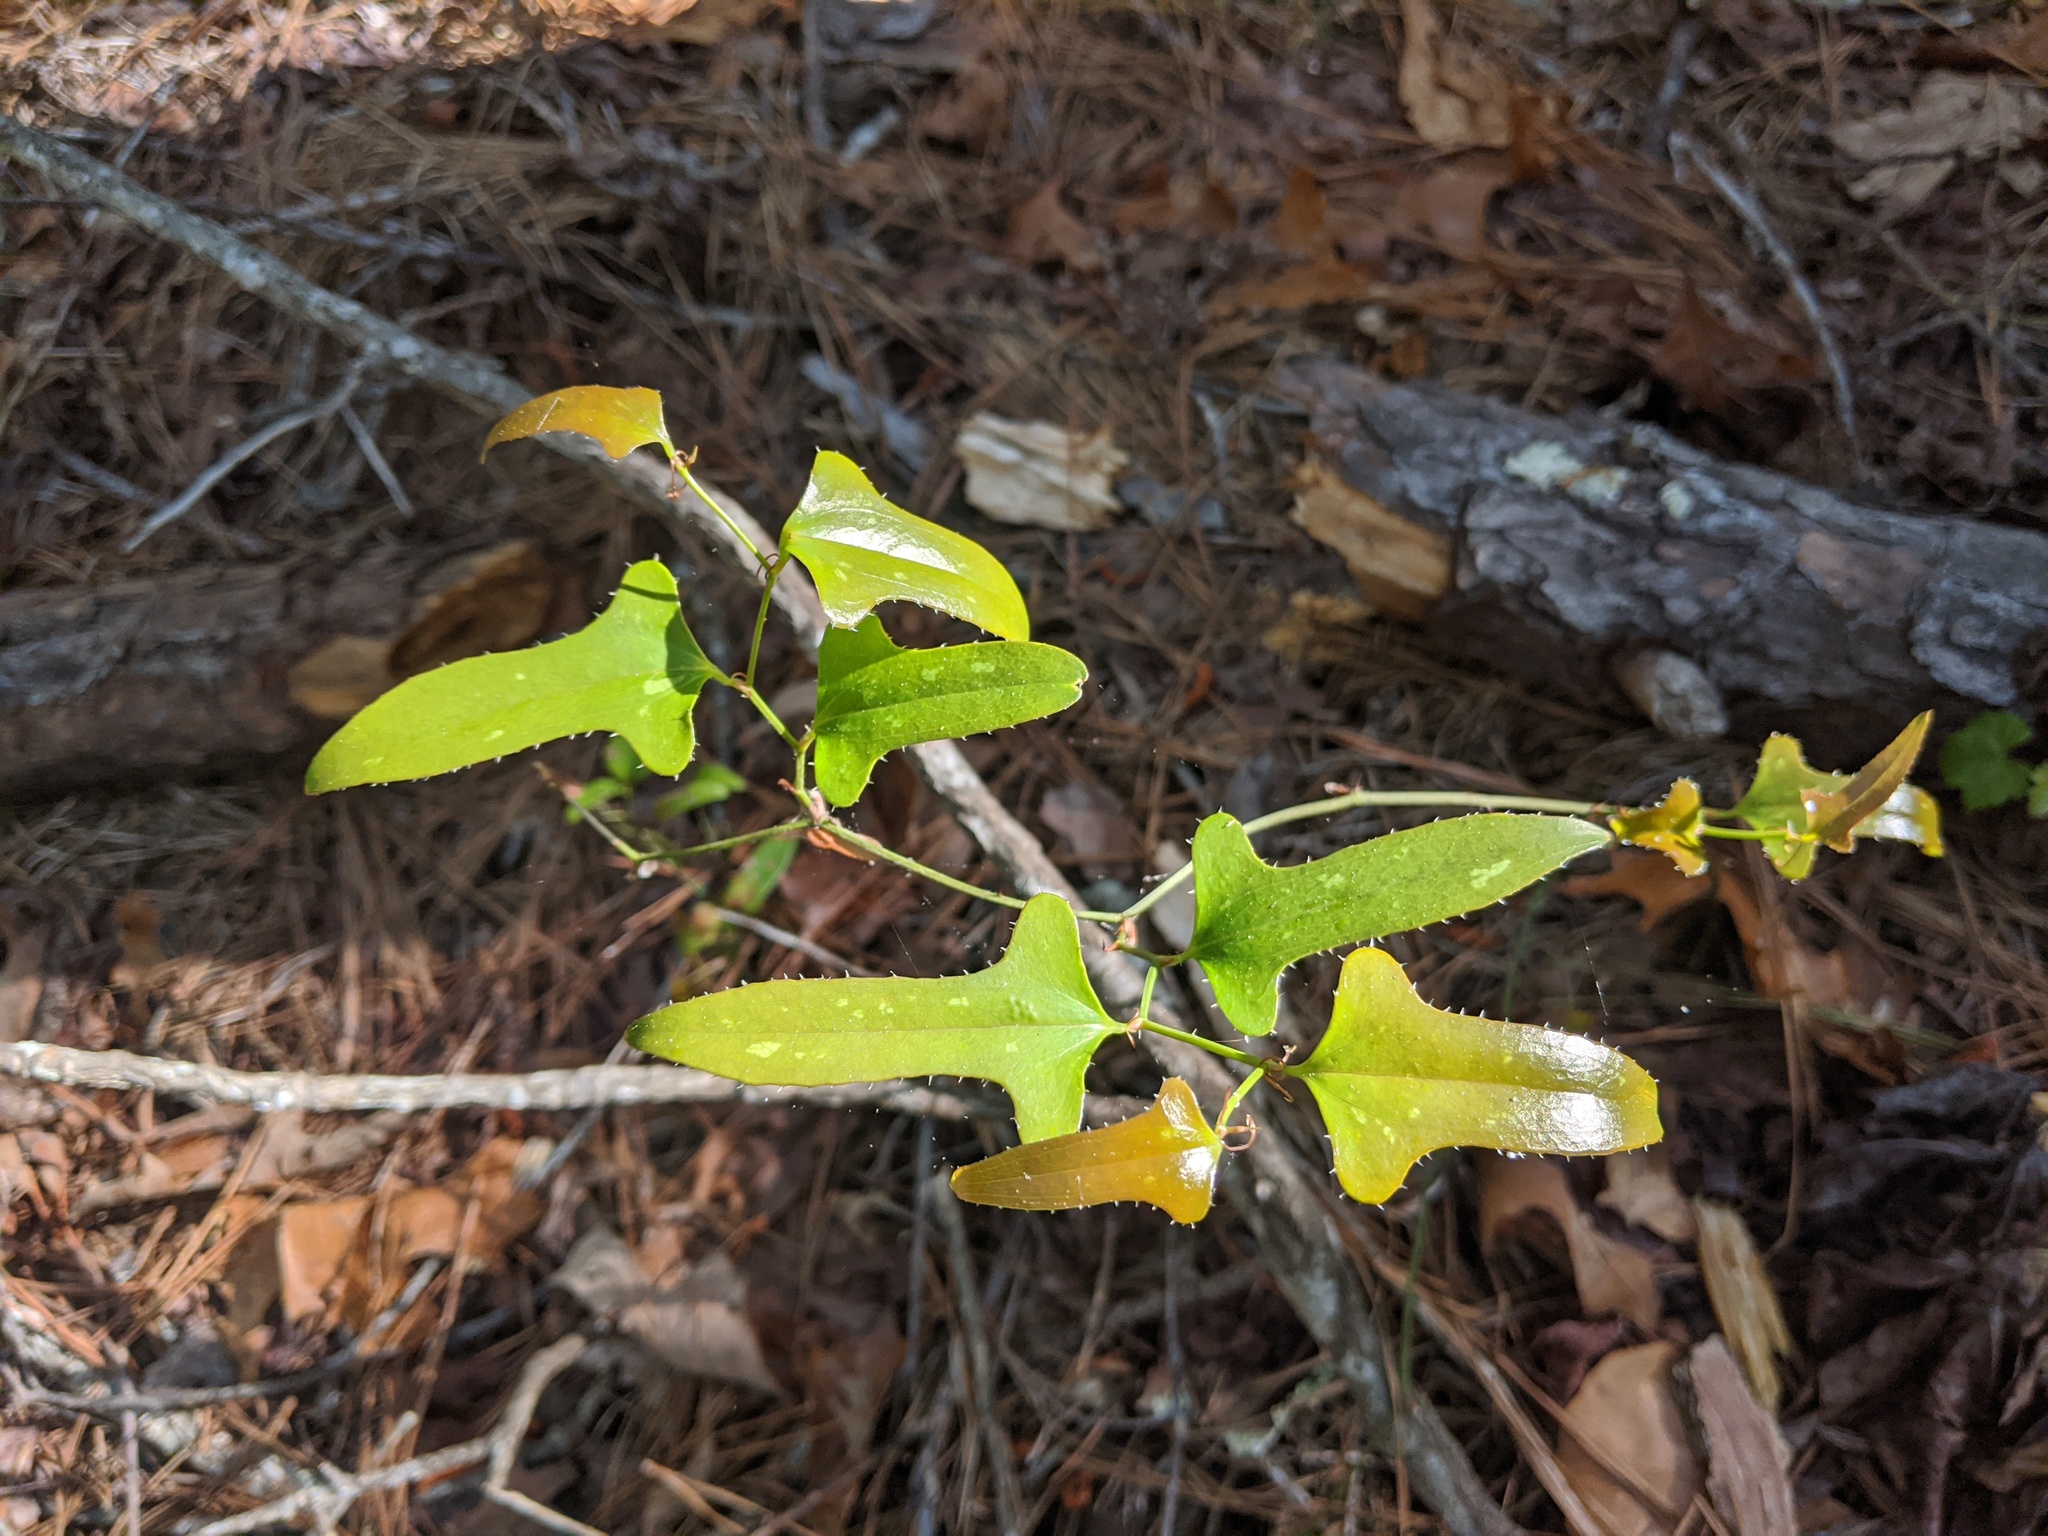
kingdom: Plantae
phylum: Tracheophyta
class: Liliopsida
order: Liliales
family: Smilacaceae
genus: Smilax
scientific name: Smilax bona-nox
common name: Catbrier
